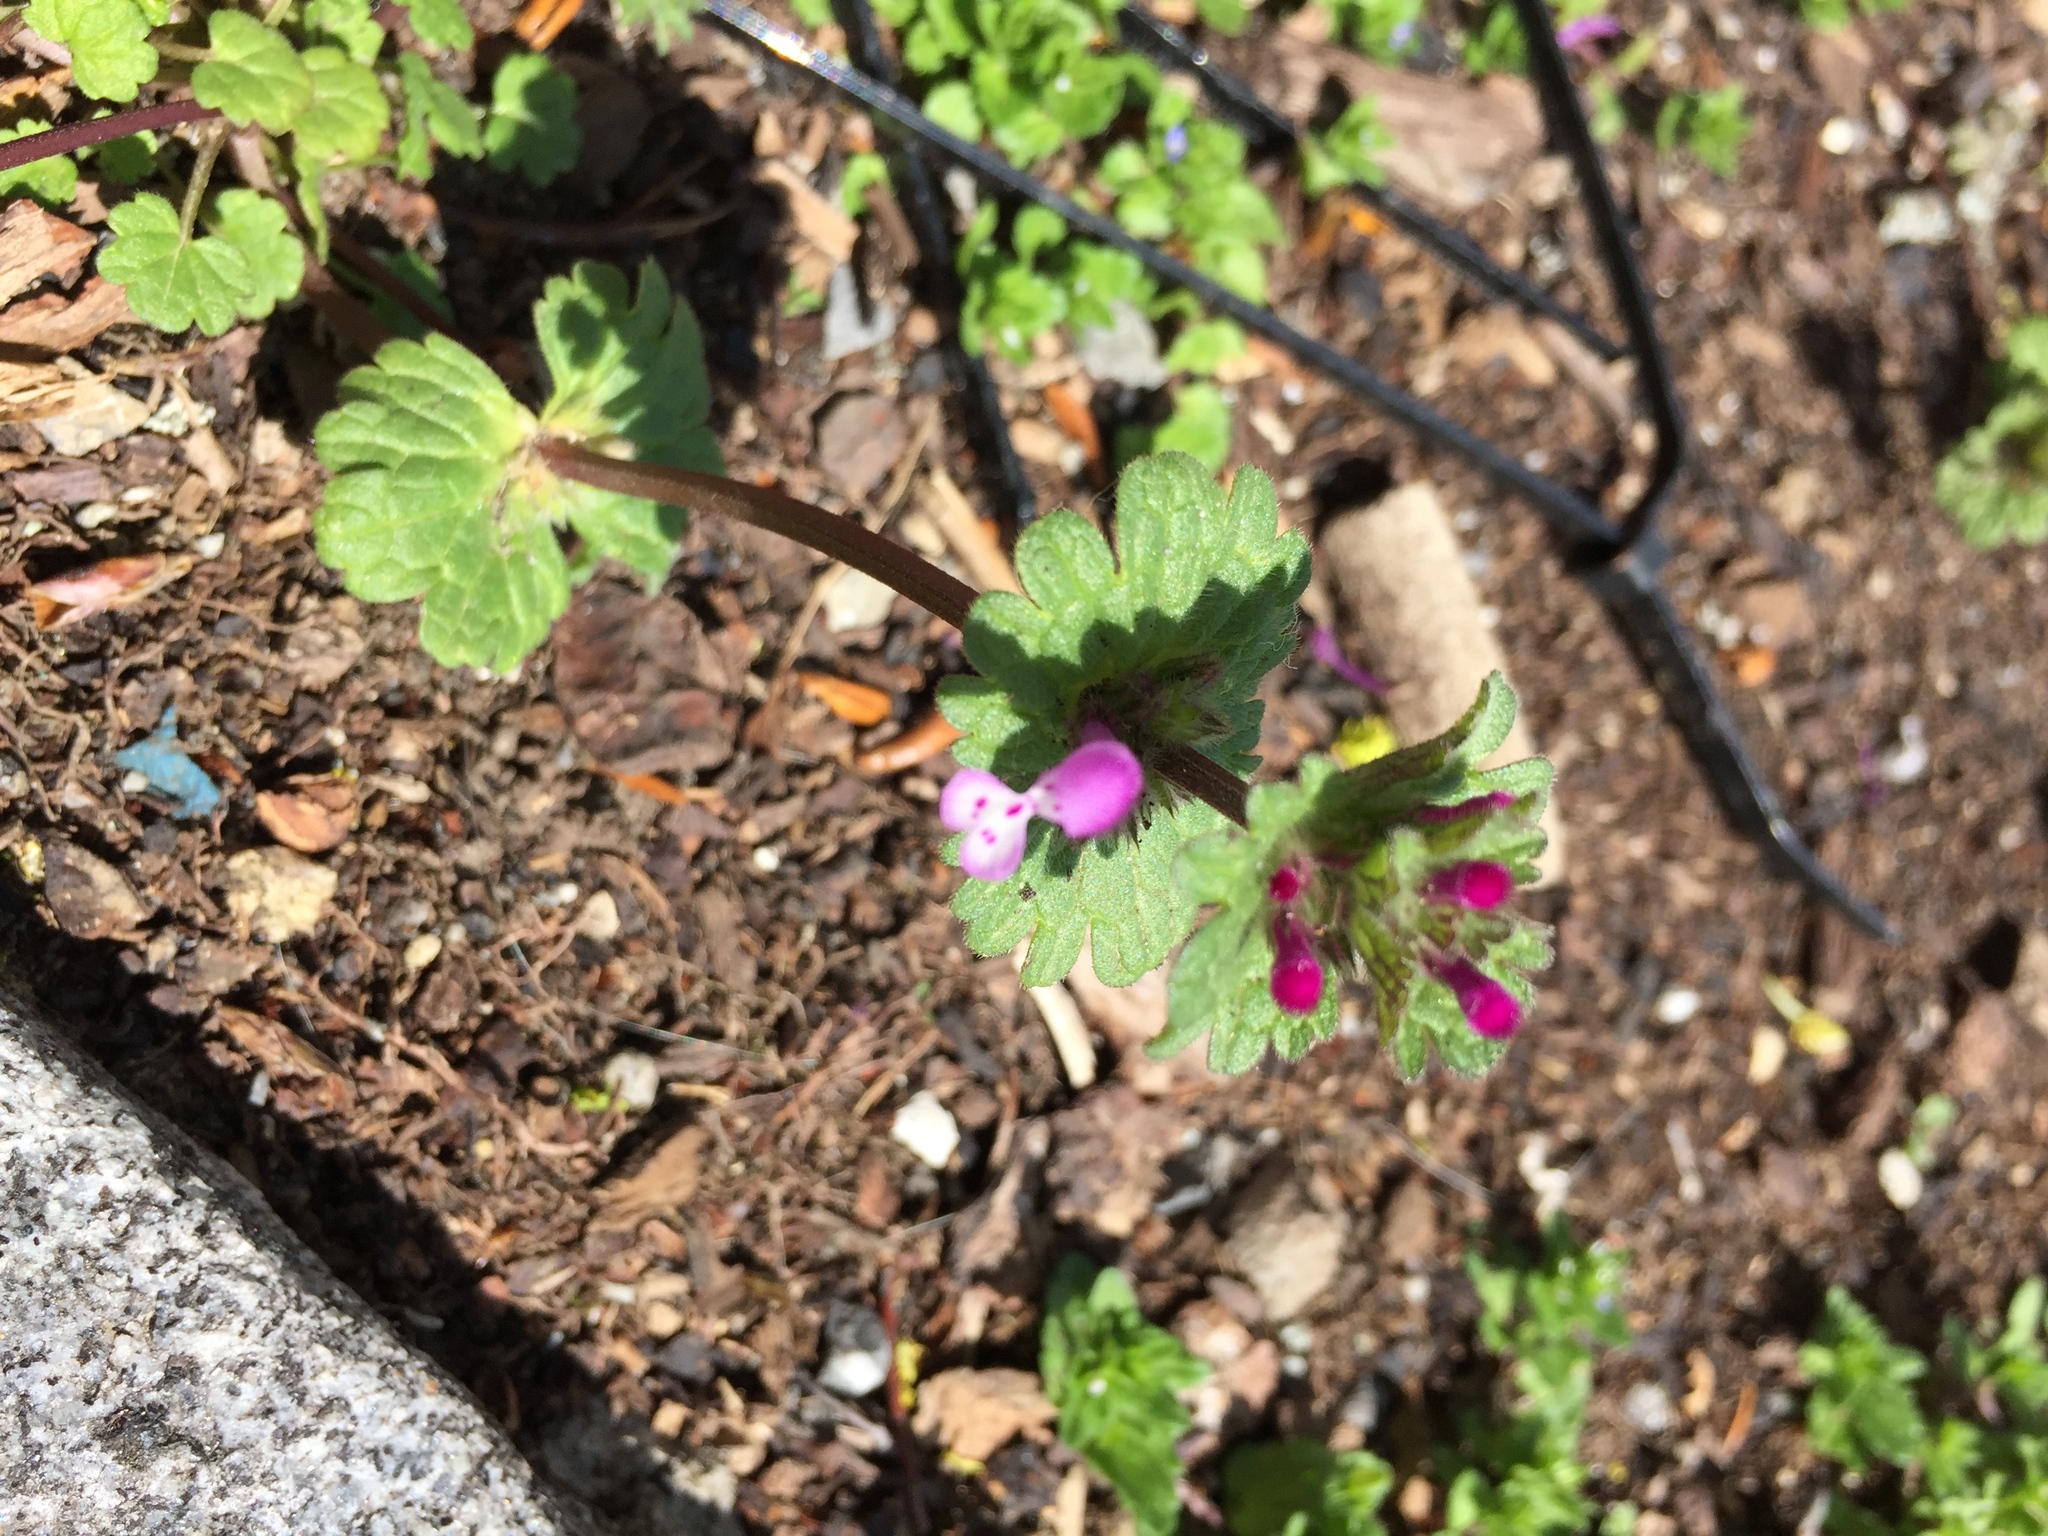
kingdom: Plantae
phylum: Tracheophyta
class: Magnoliopsida
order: Lamiales
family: Lamiaceae
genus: Lamium
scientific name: Lamium amplexicaule
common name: Henbit dead-nettle
